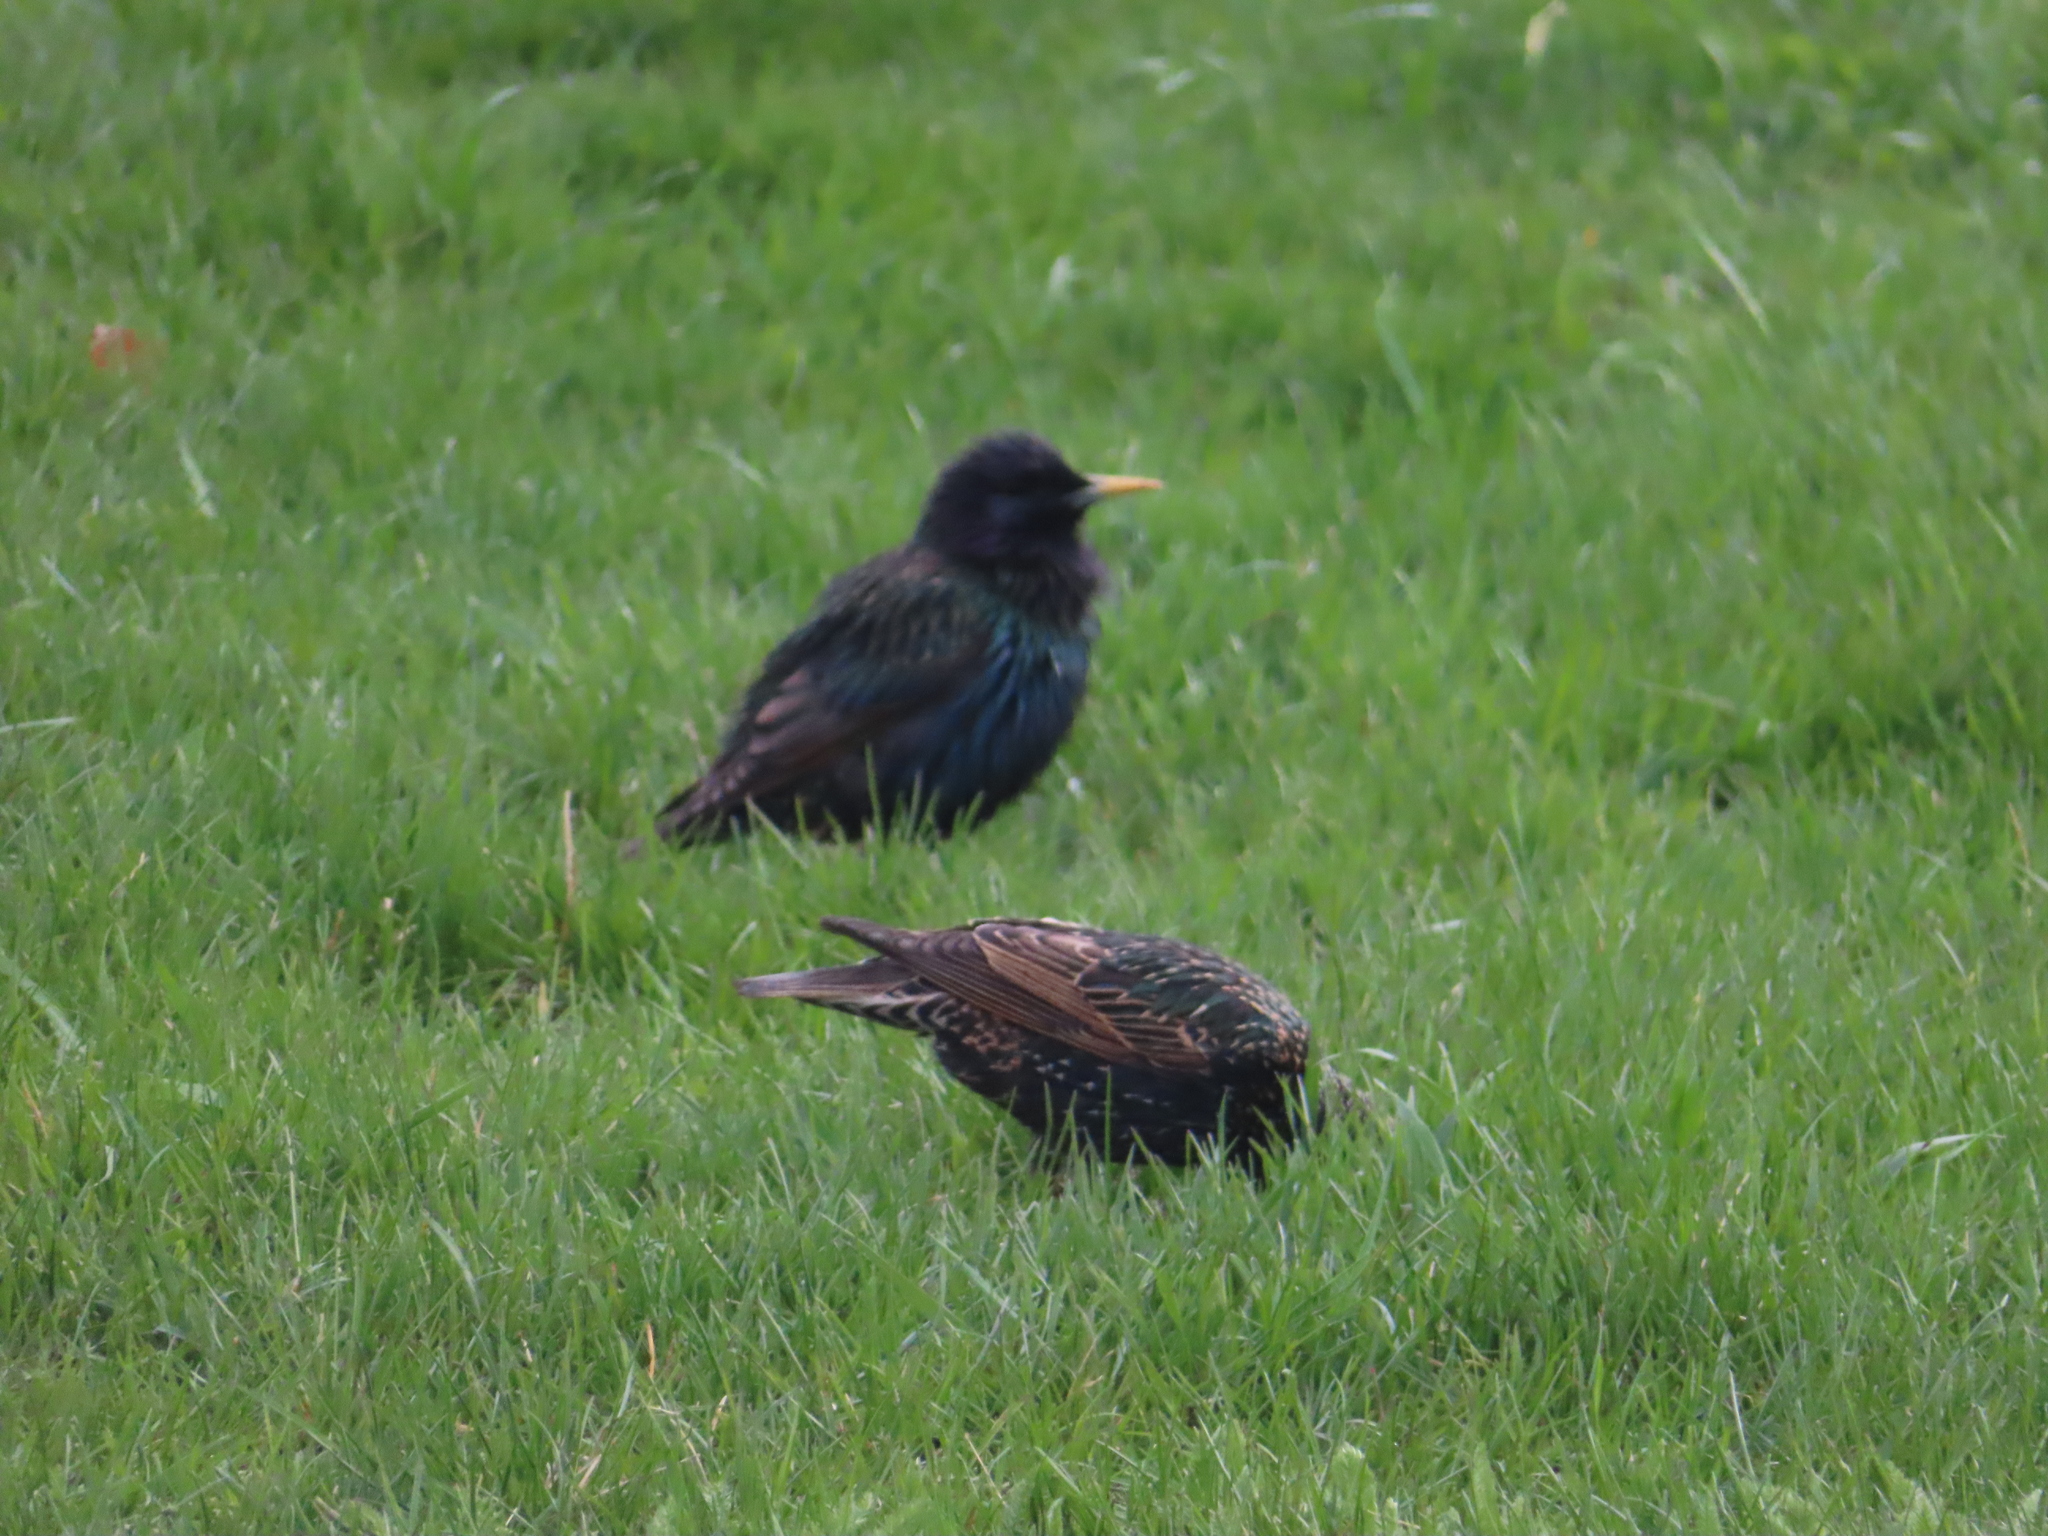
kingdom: Animalia
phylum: Chordata
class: Aves
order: Passeriformes
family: Sturnidae
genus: Sturnus
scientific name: Sturnus vulgaris
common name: Common starling
